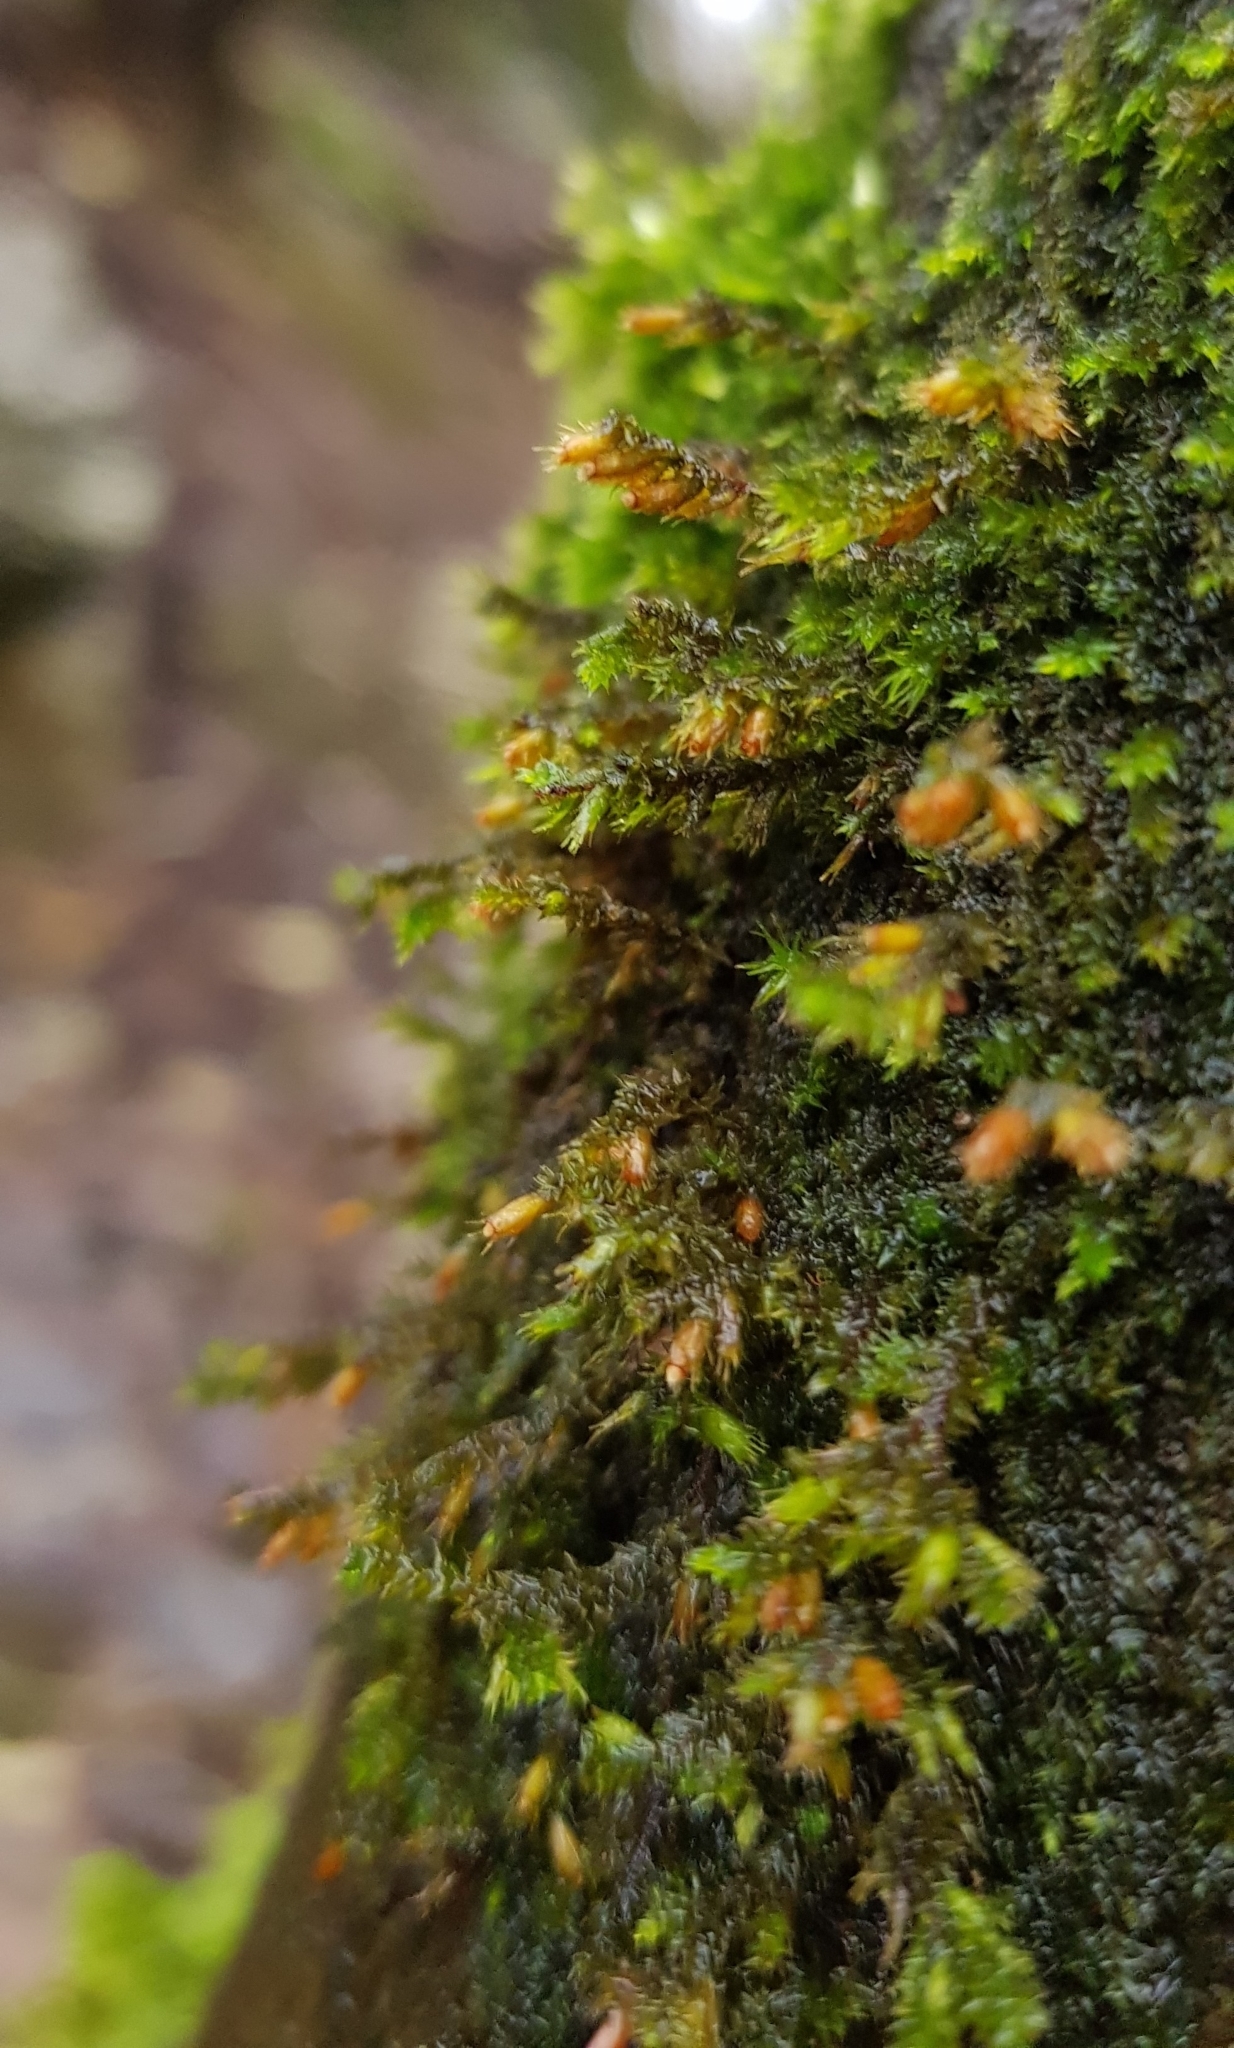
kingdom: Plantae
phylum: Bryophyta
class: Bryopsida
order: Hypnales
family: Cryphaeaceae
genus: Cryphaea
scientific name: Cryphaea heteromalla
